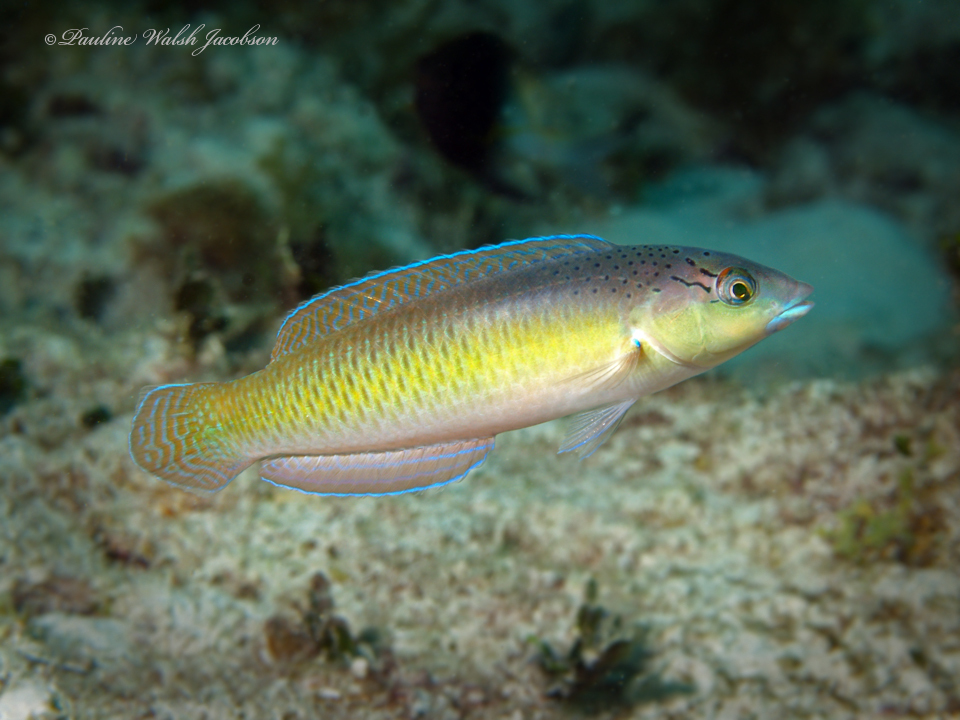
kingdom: Animalia
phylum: Chordata
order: Perciformes
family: Labridae
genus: Halichoeres
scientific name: Halichoeres garnoti
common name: Yellowhead wrasse
